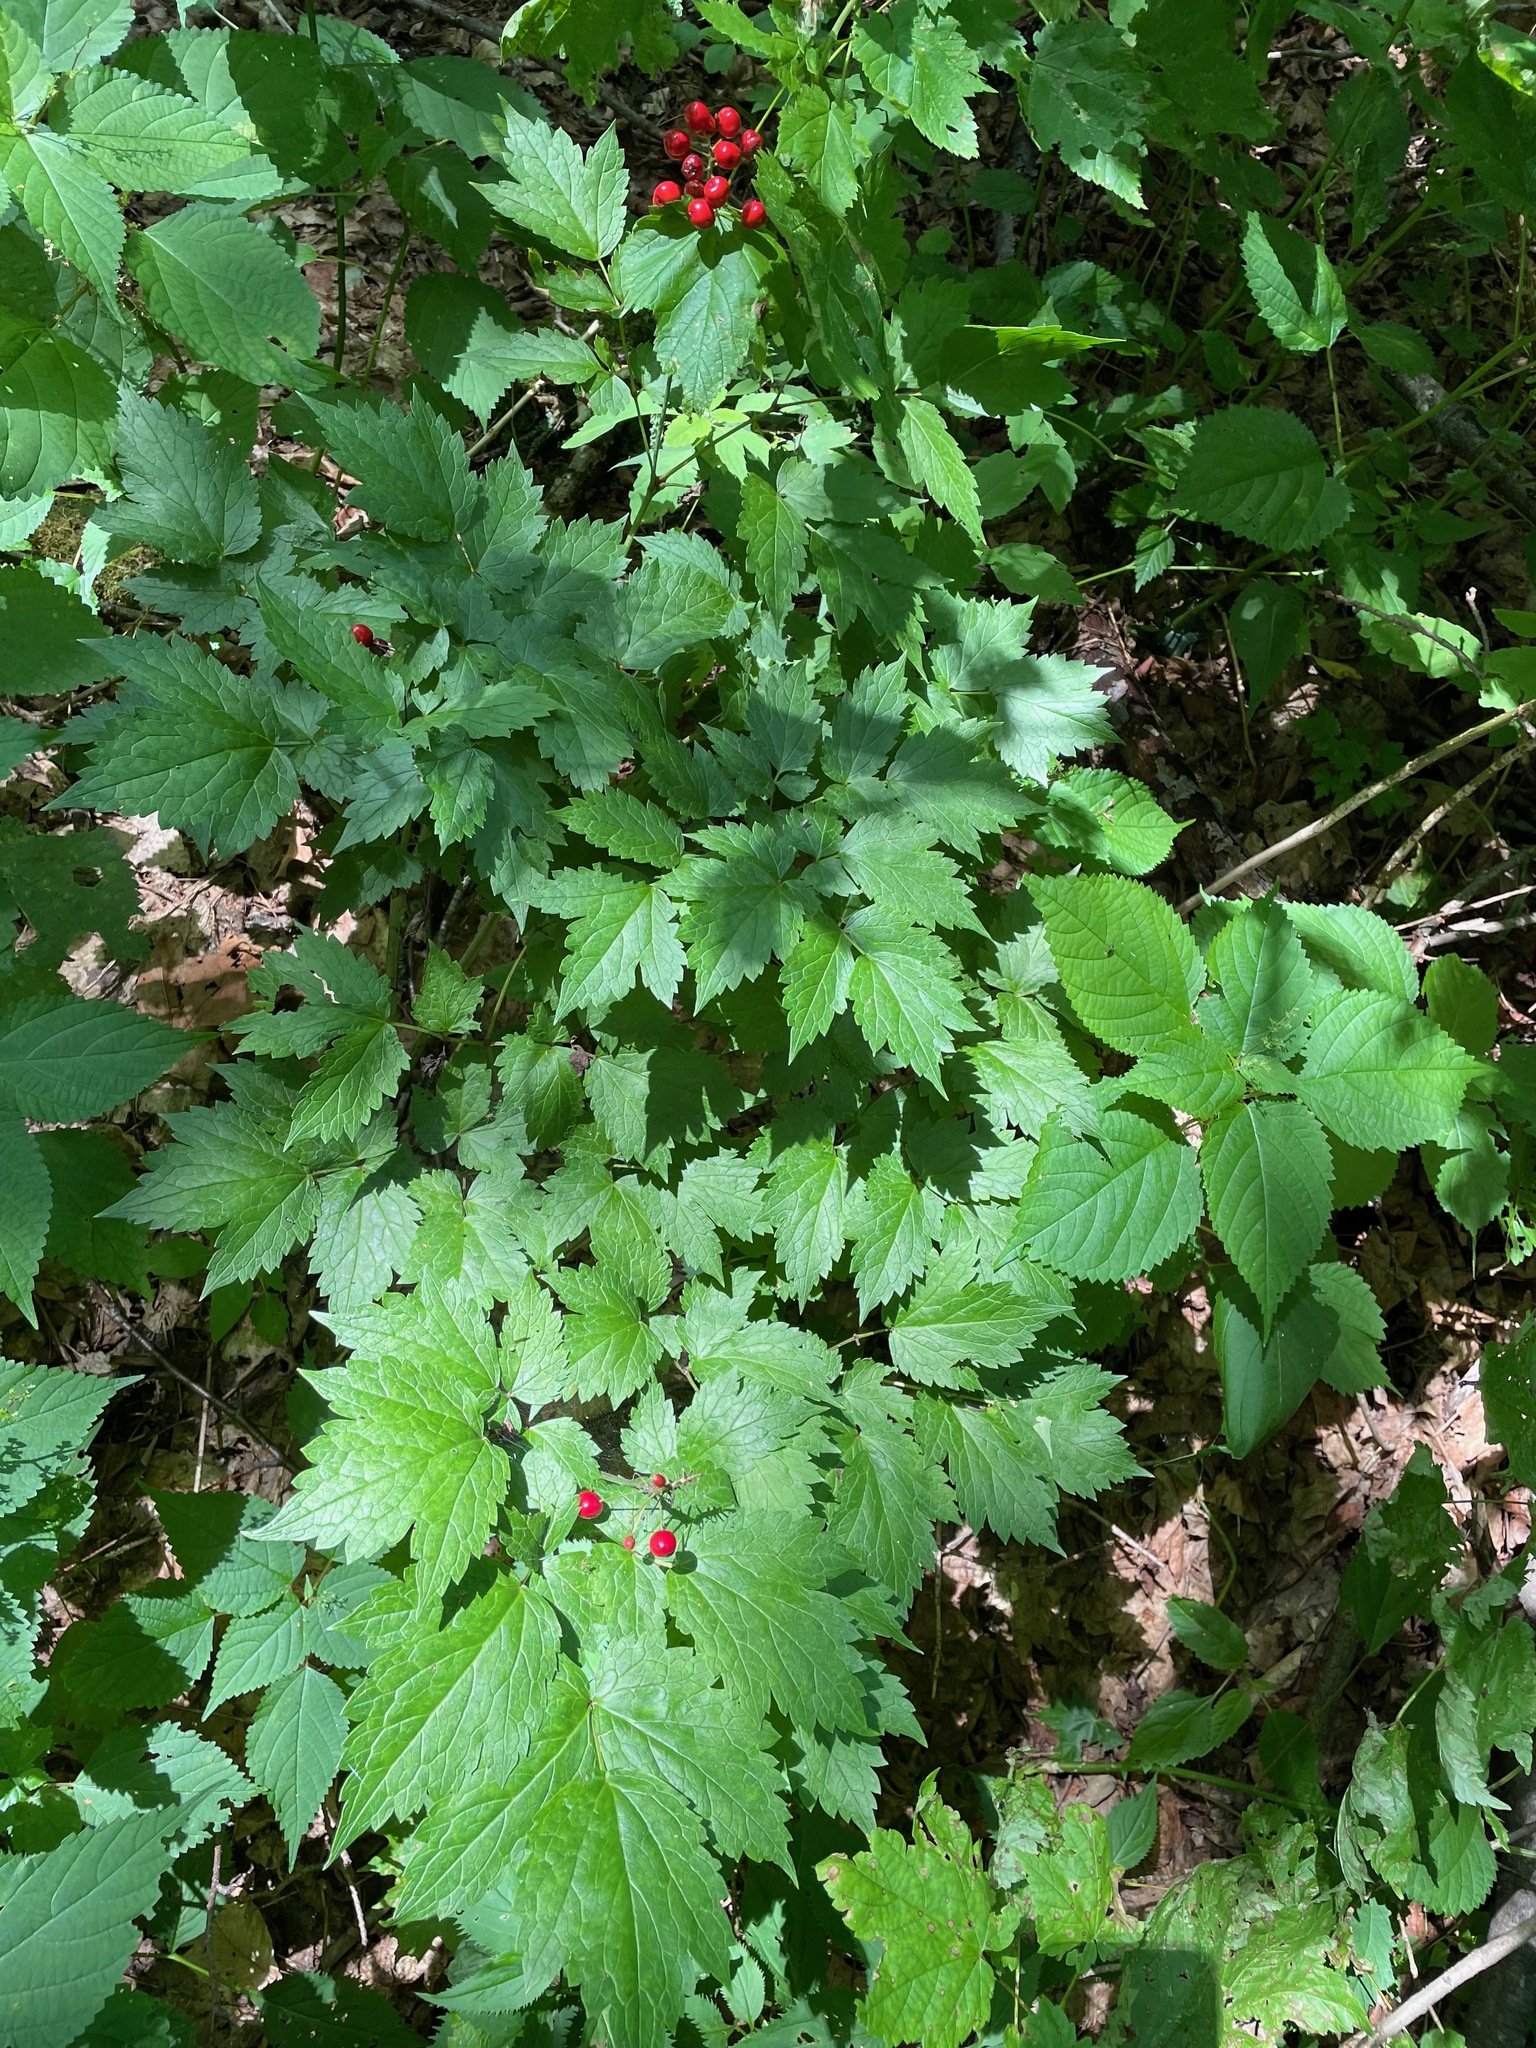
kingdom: Plantae
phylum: Tracheophyta
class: Magnoliopsida
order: Ranunculales
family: Ranunculaceae
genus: Actaea
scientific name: Actaea rubra
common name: Red baneberry
